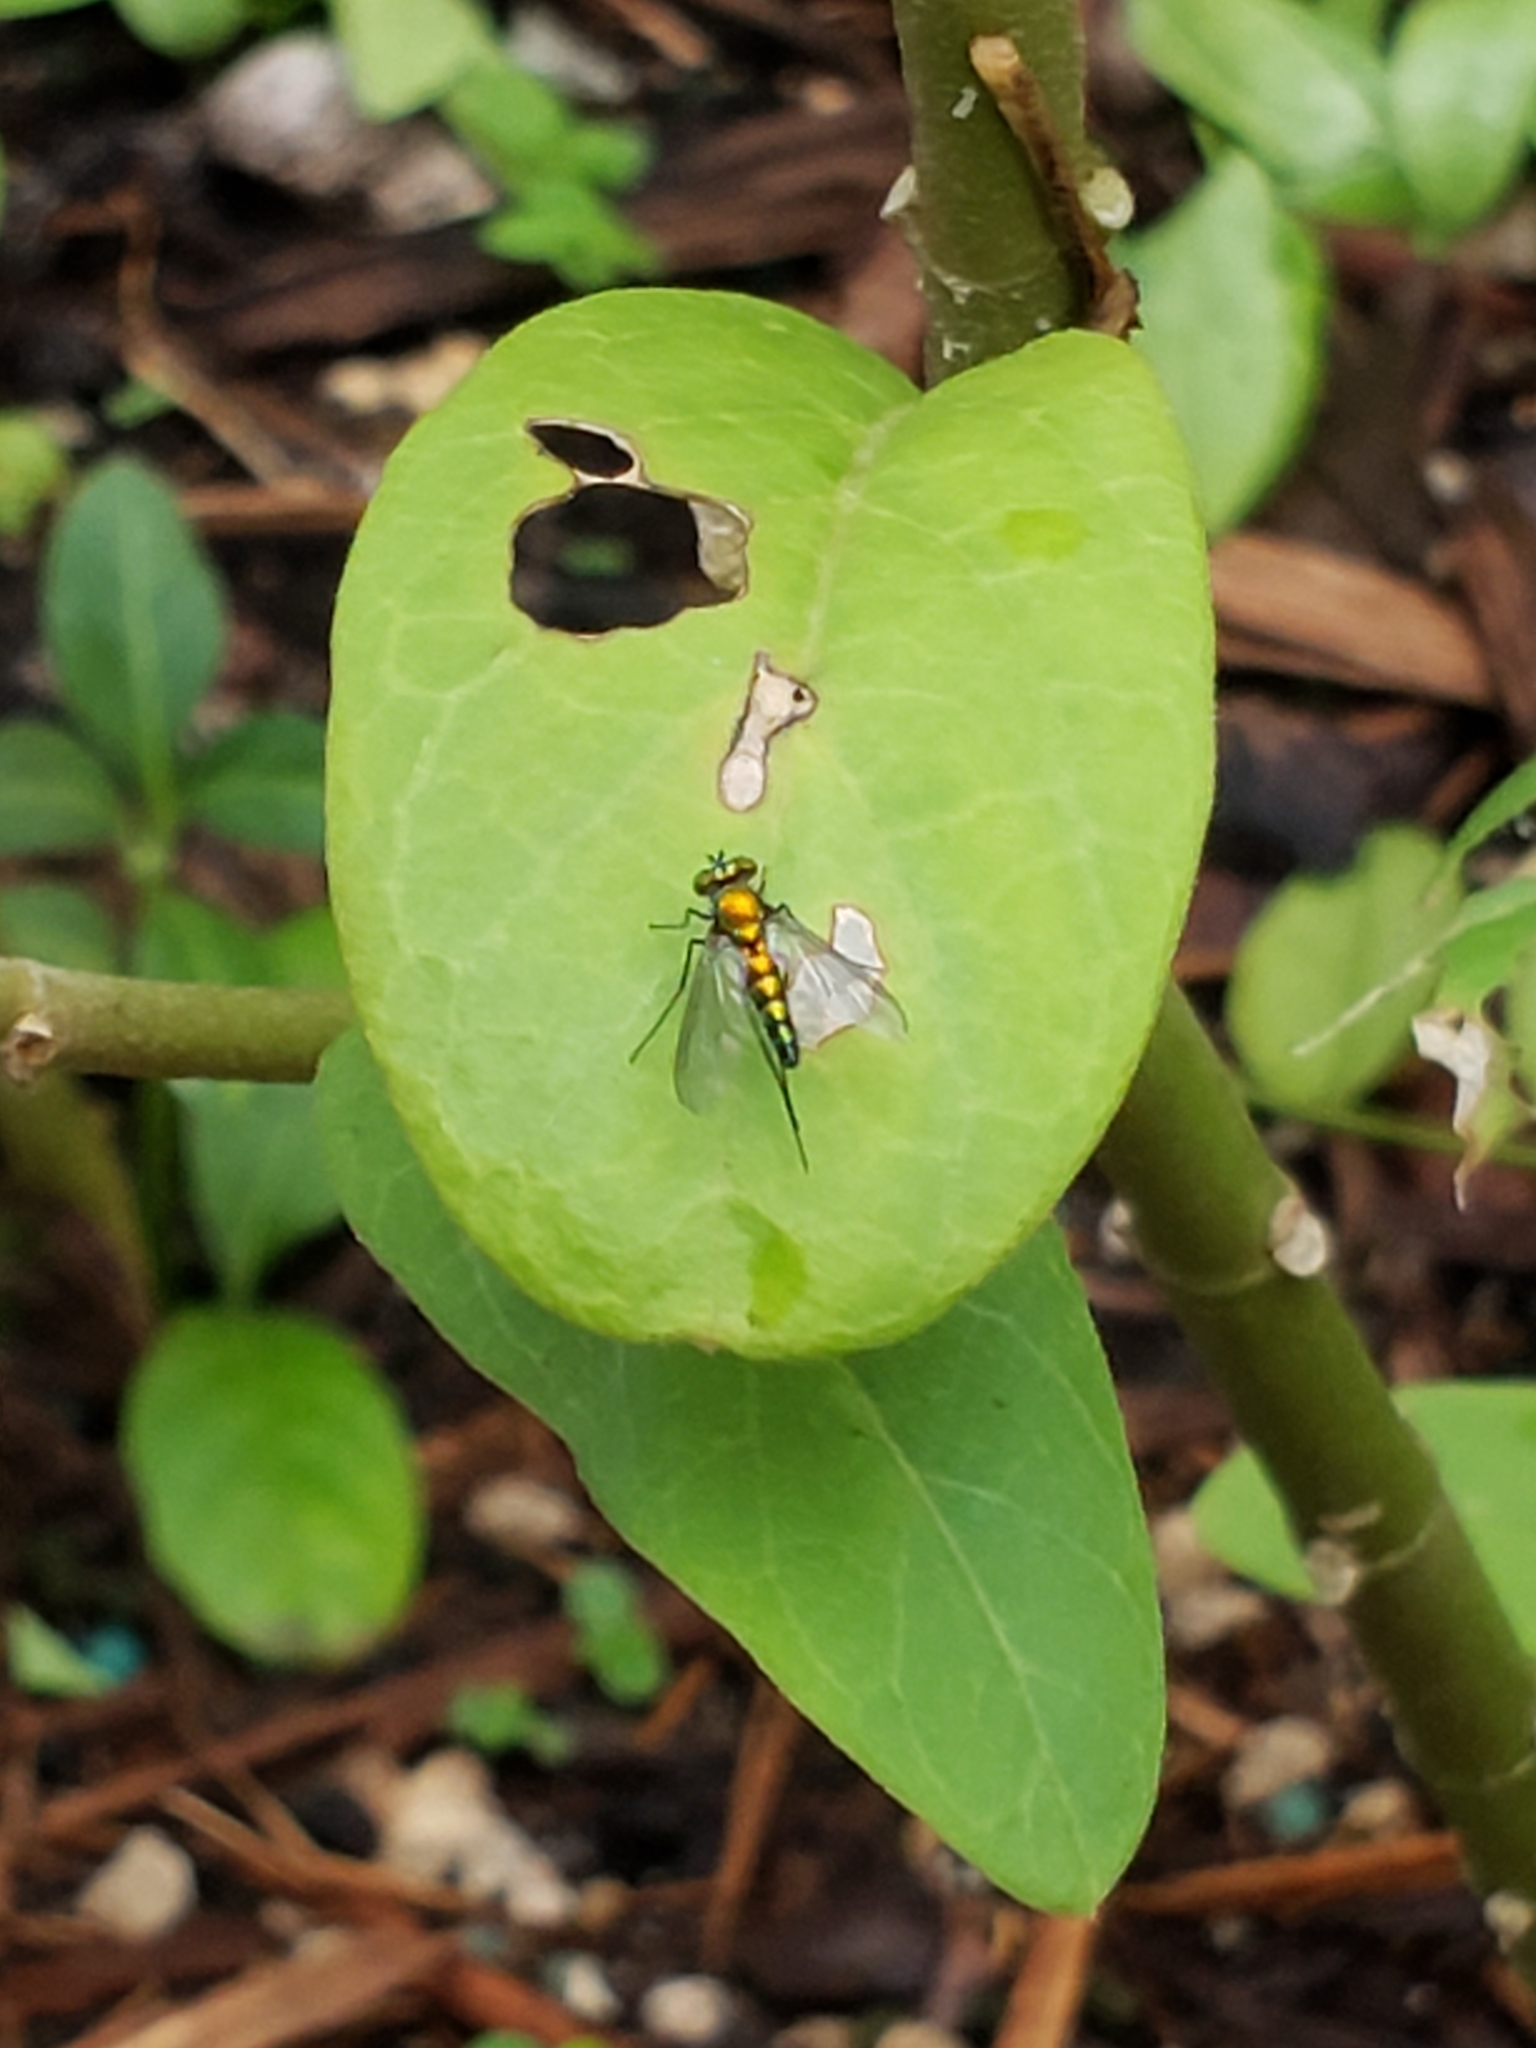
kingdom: Animalia
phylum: Arthropoda
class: Insecta
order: Diptera
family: Dolichopodidae
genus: Condylostylus
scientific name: Condylostylus longicornis
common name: Long-legged fly
